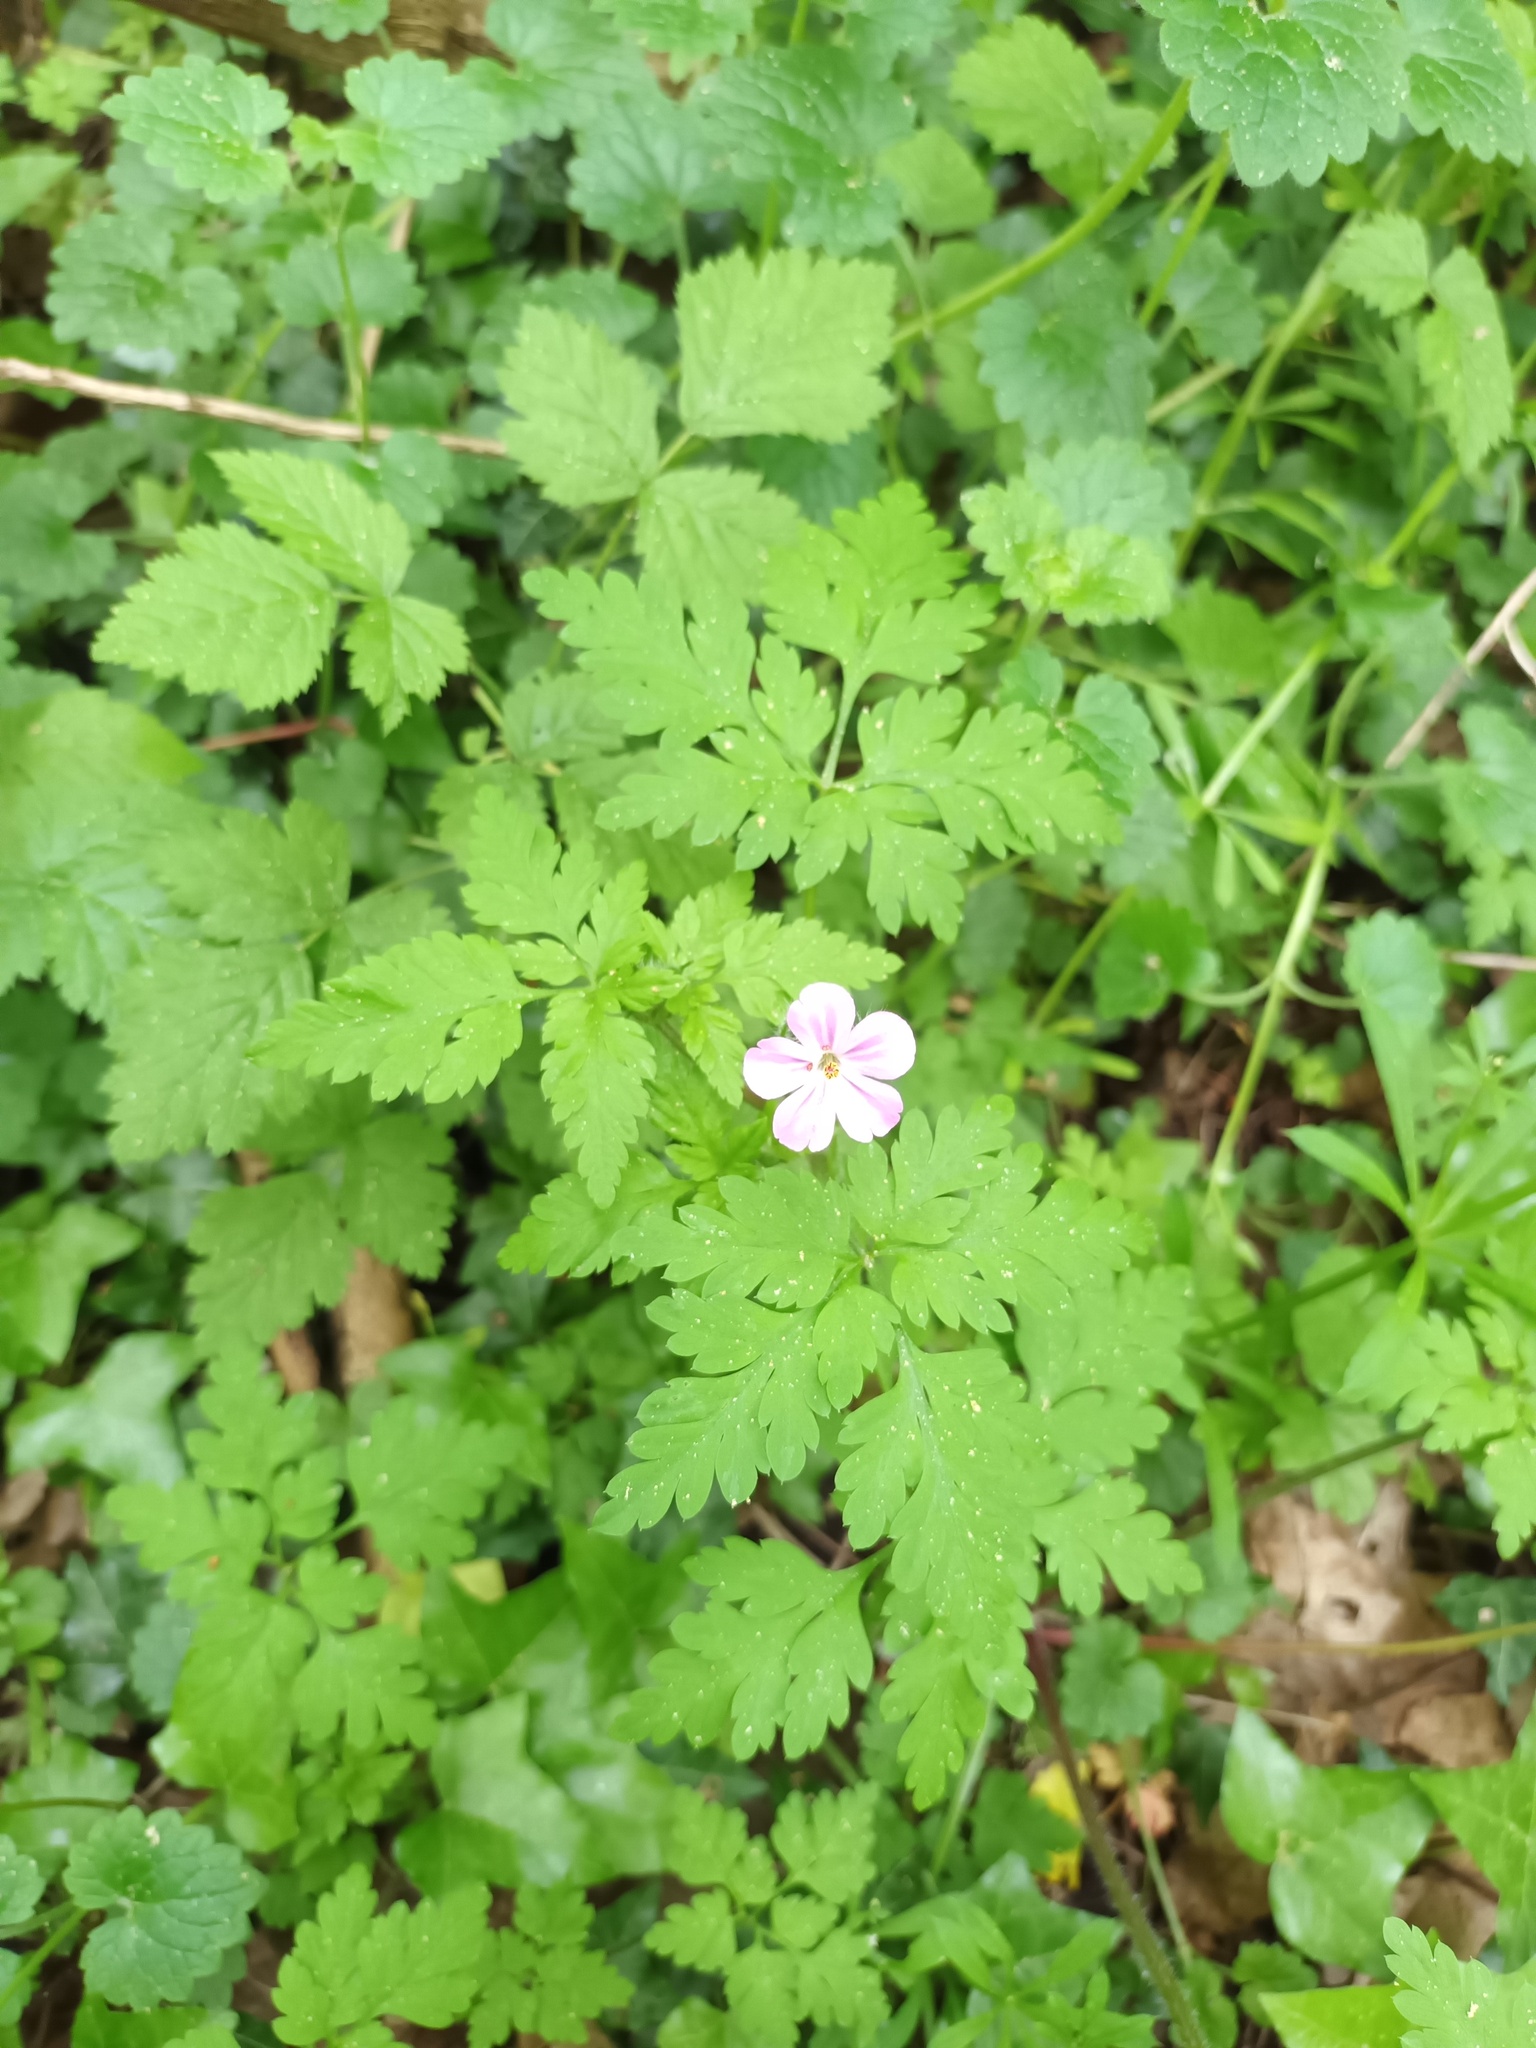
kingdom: Plantae
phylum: Tracheophyta
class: Magnoliopsida
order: Geraniales
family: Geraniaceae
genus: Geranium
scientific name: Geranium robertianum
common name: Herb-robert
